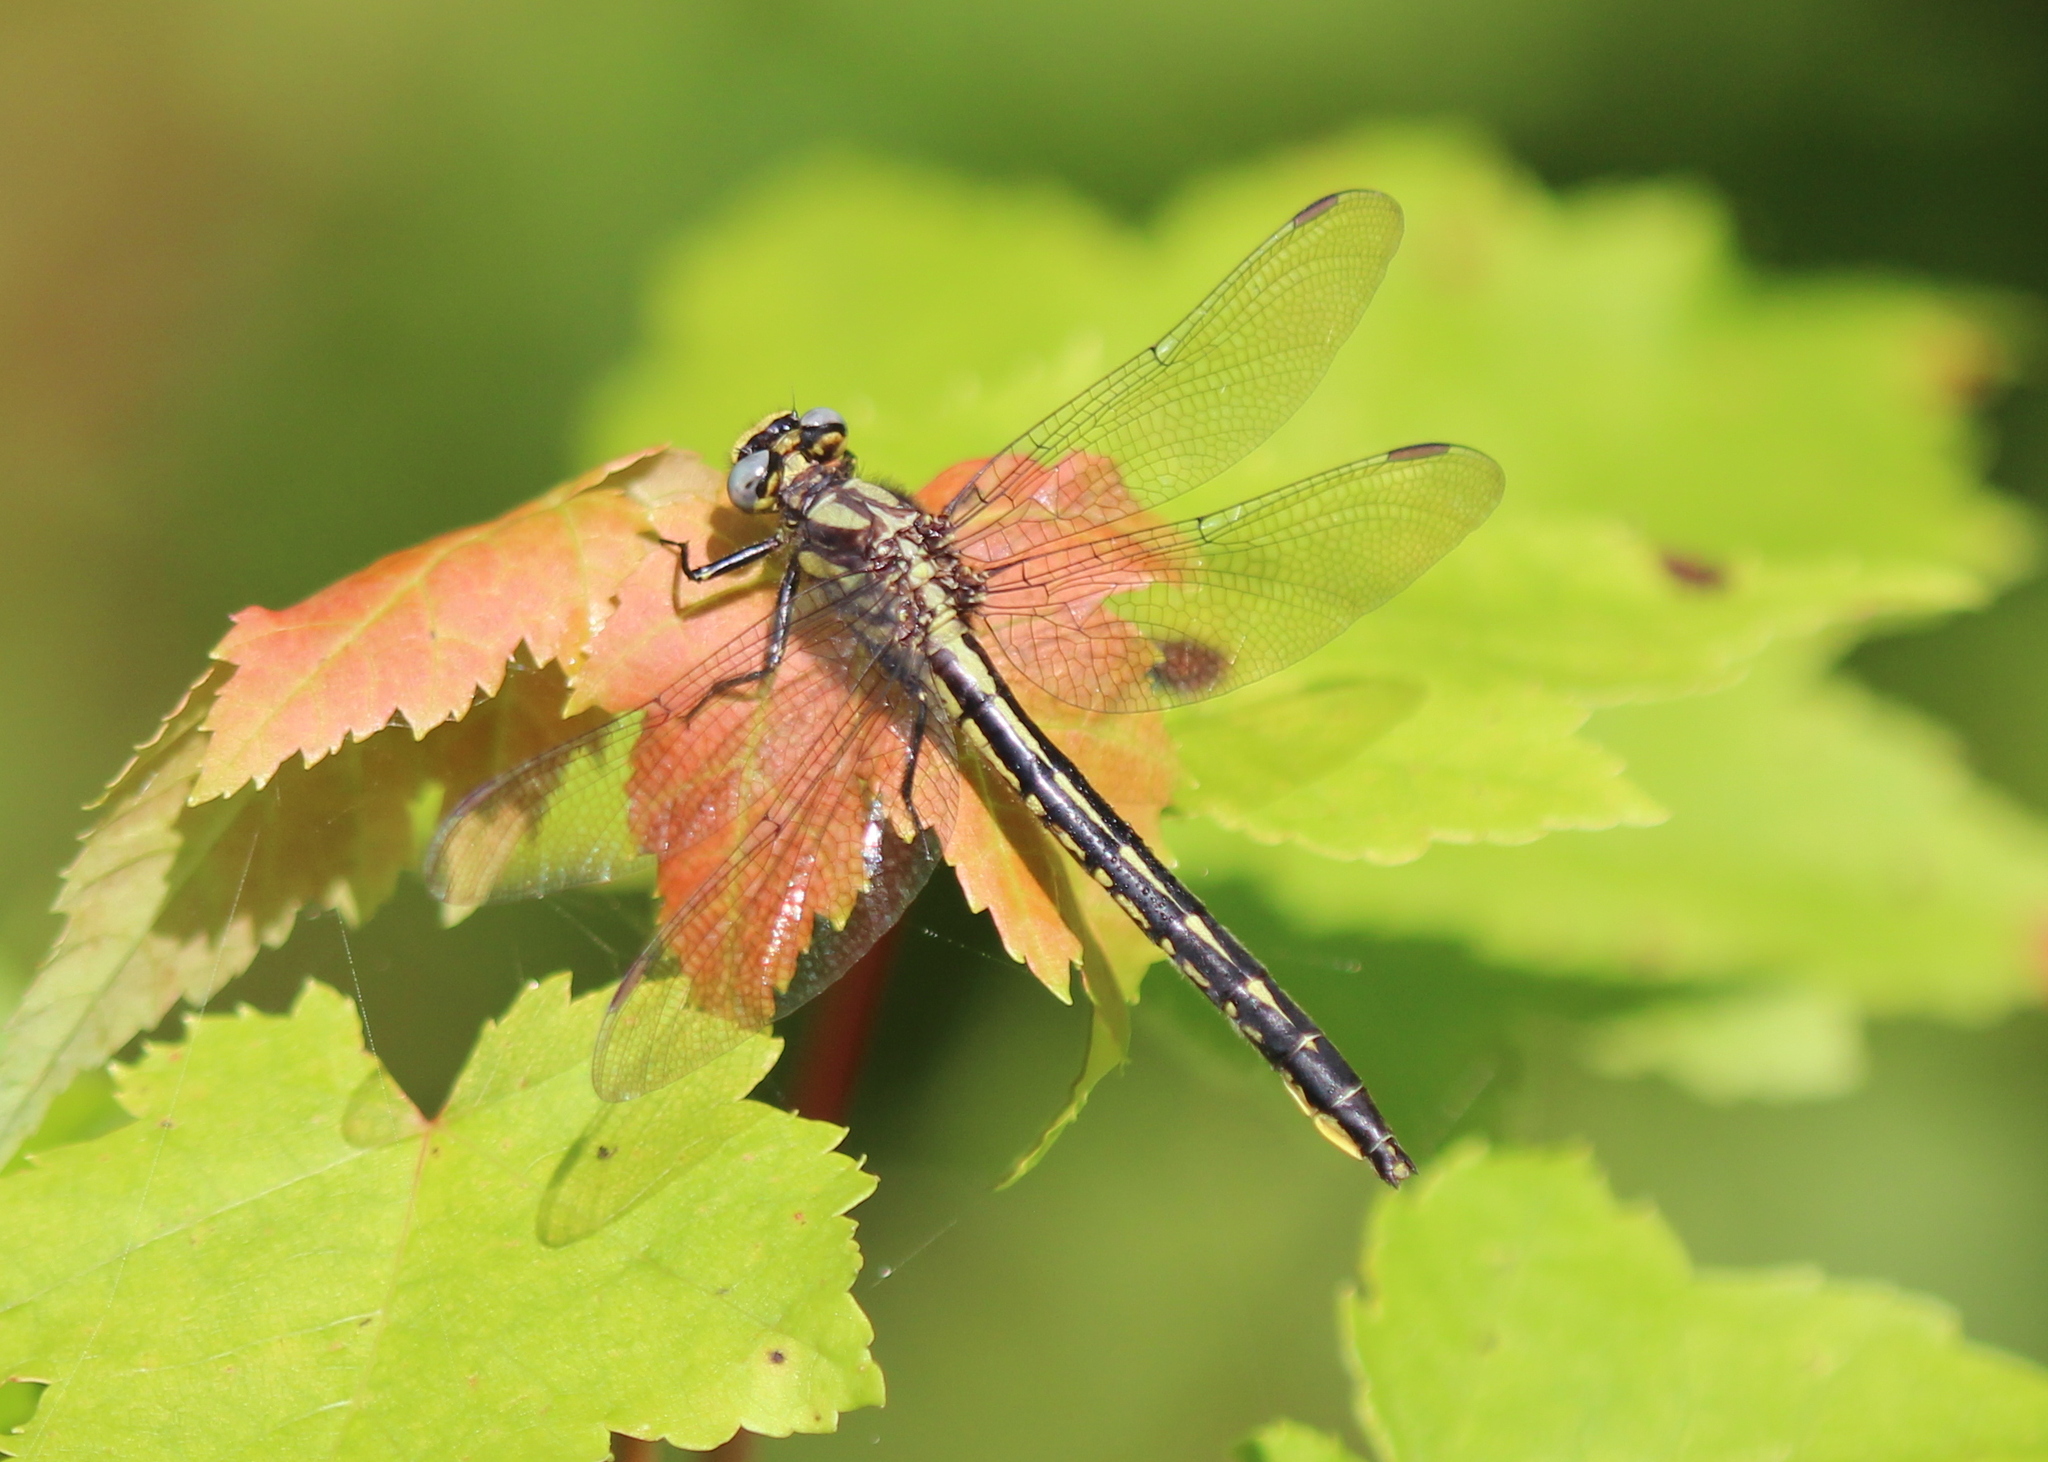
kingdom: Animalia
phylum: Arthropoda
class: Insecta
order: Odonata
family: Gomphidae
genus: Phanogomphus
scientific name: Phanogomphus borealis
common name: Beaverpond clubtail
